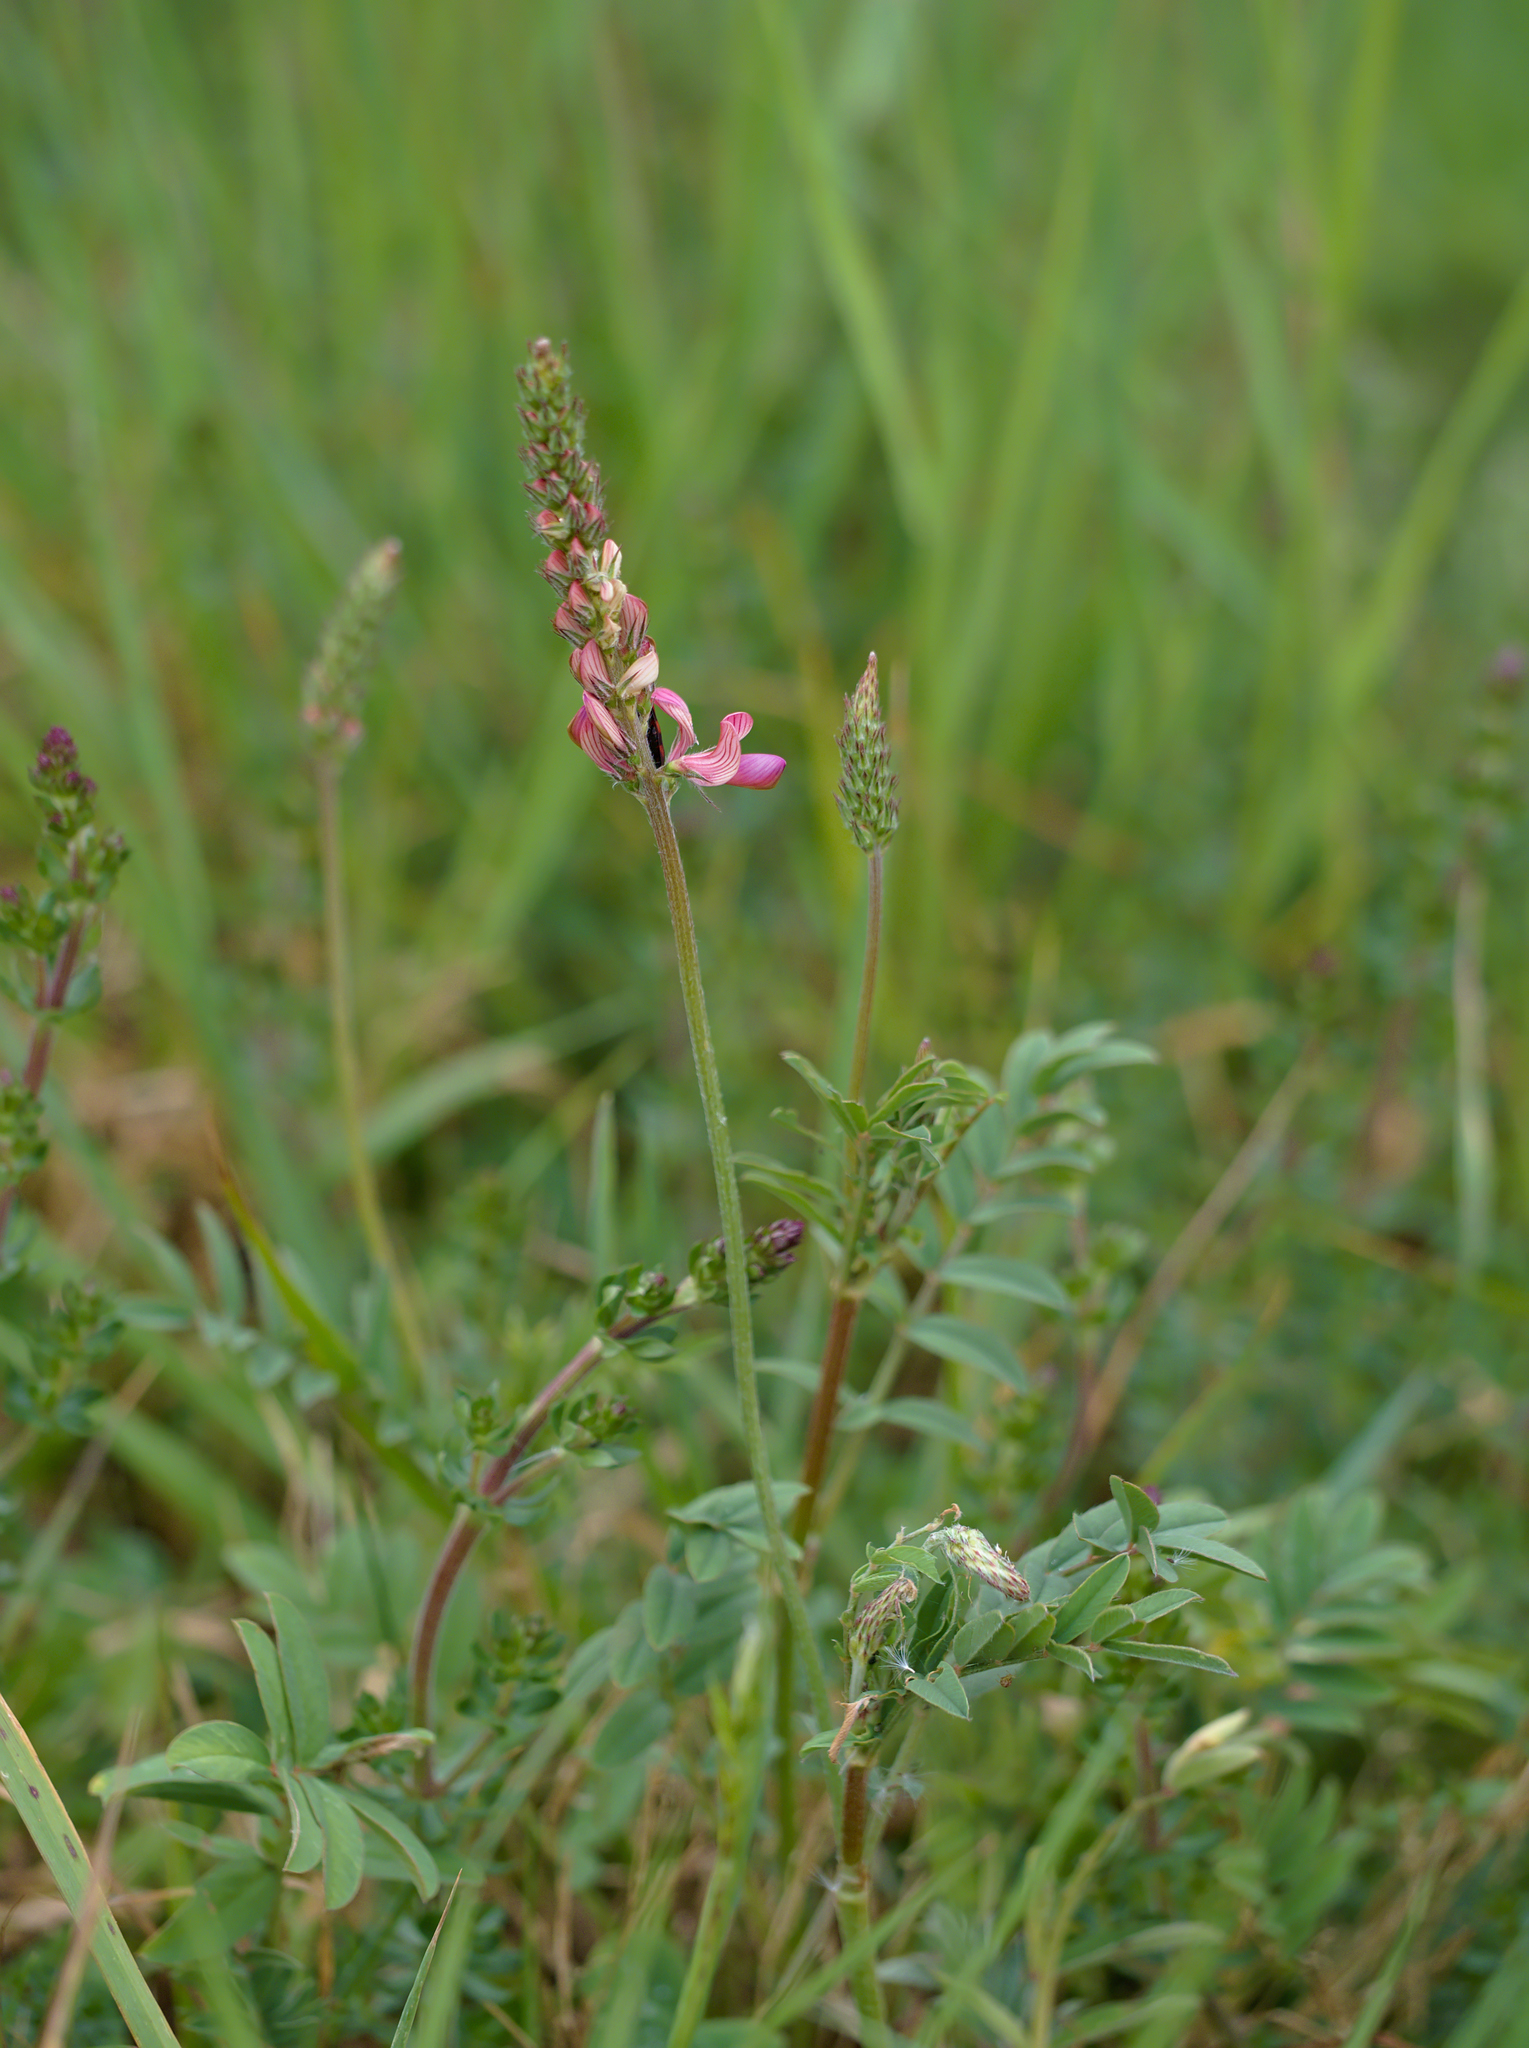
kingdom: Plantae
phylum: Tracheophyta
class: Magnoliopsida
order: Fabales
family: Fabaceae
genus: Onobrychis
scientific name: Onobrychis viciifolia
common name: Sainfoin
